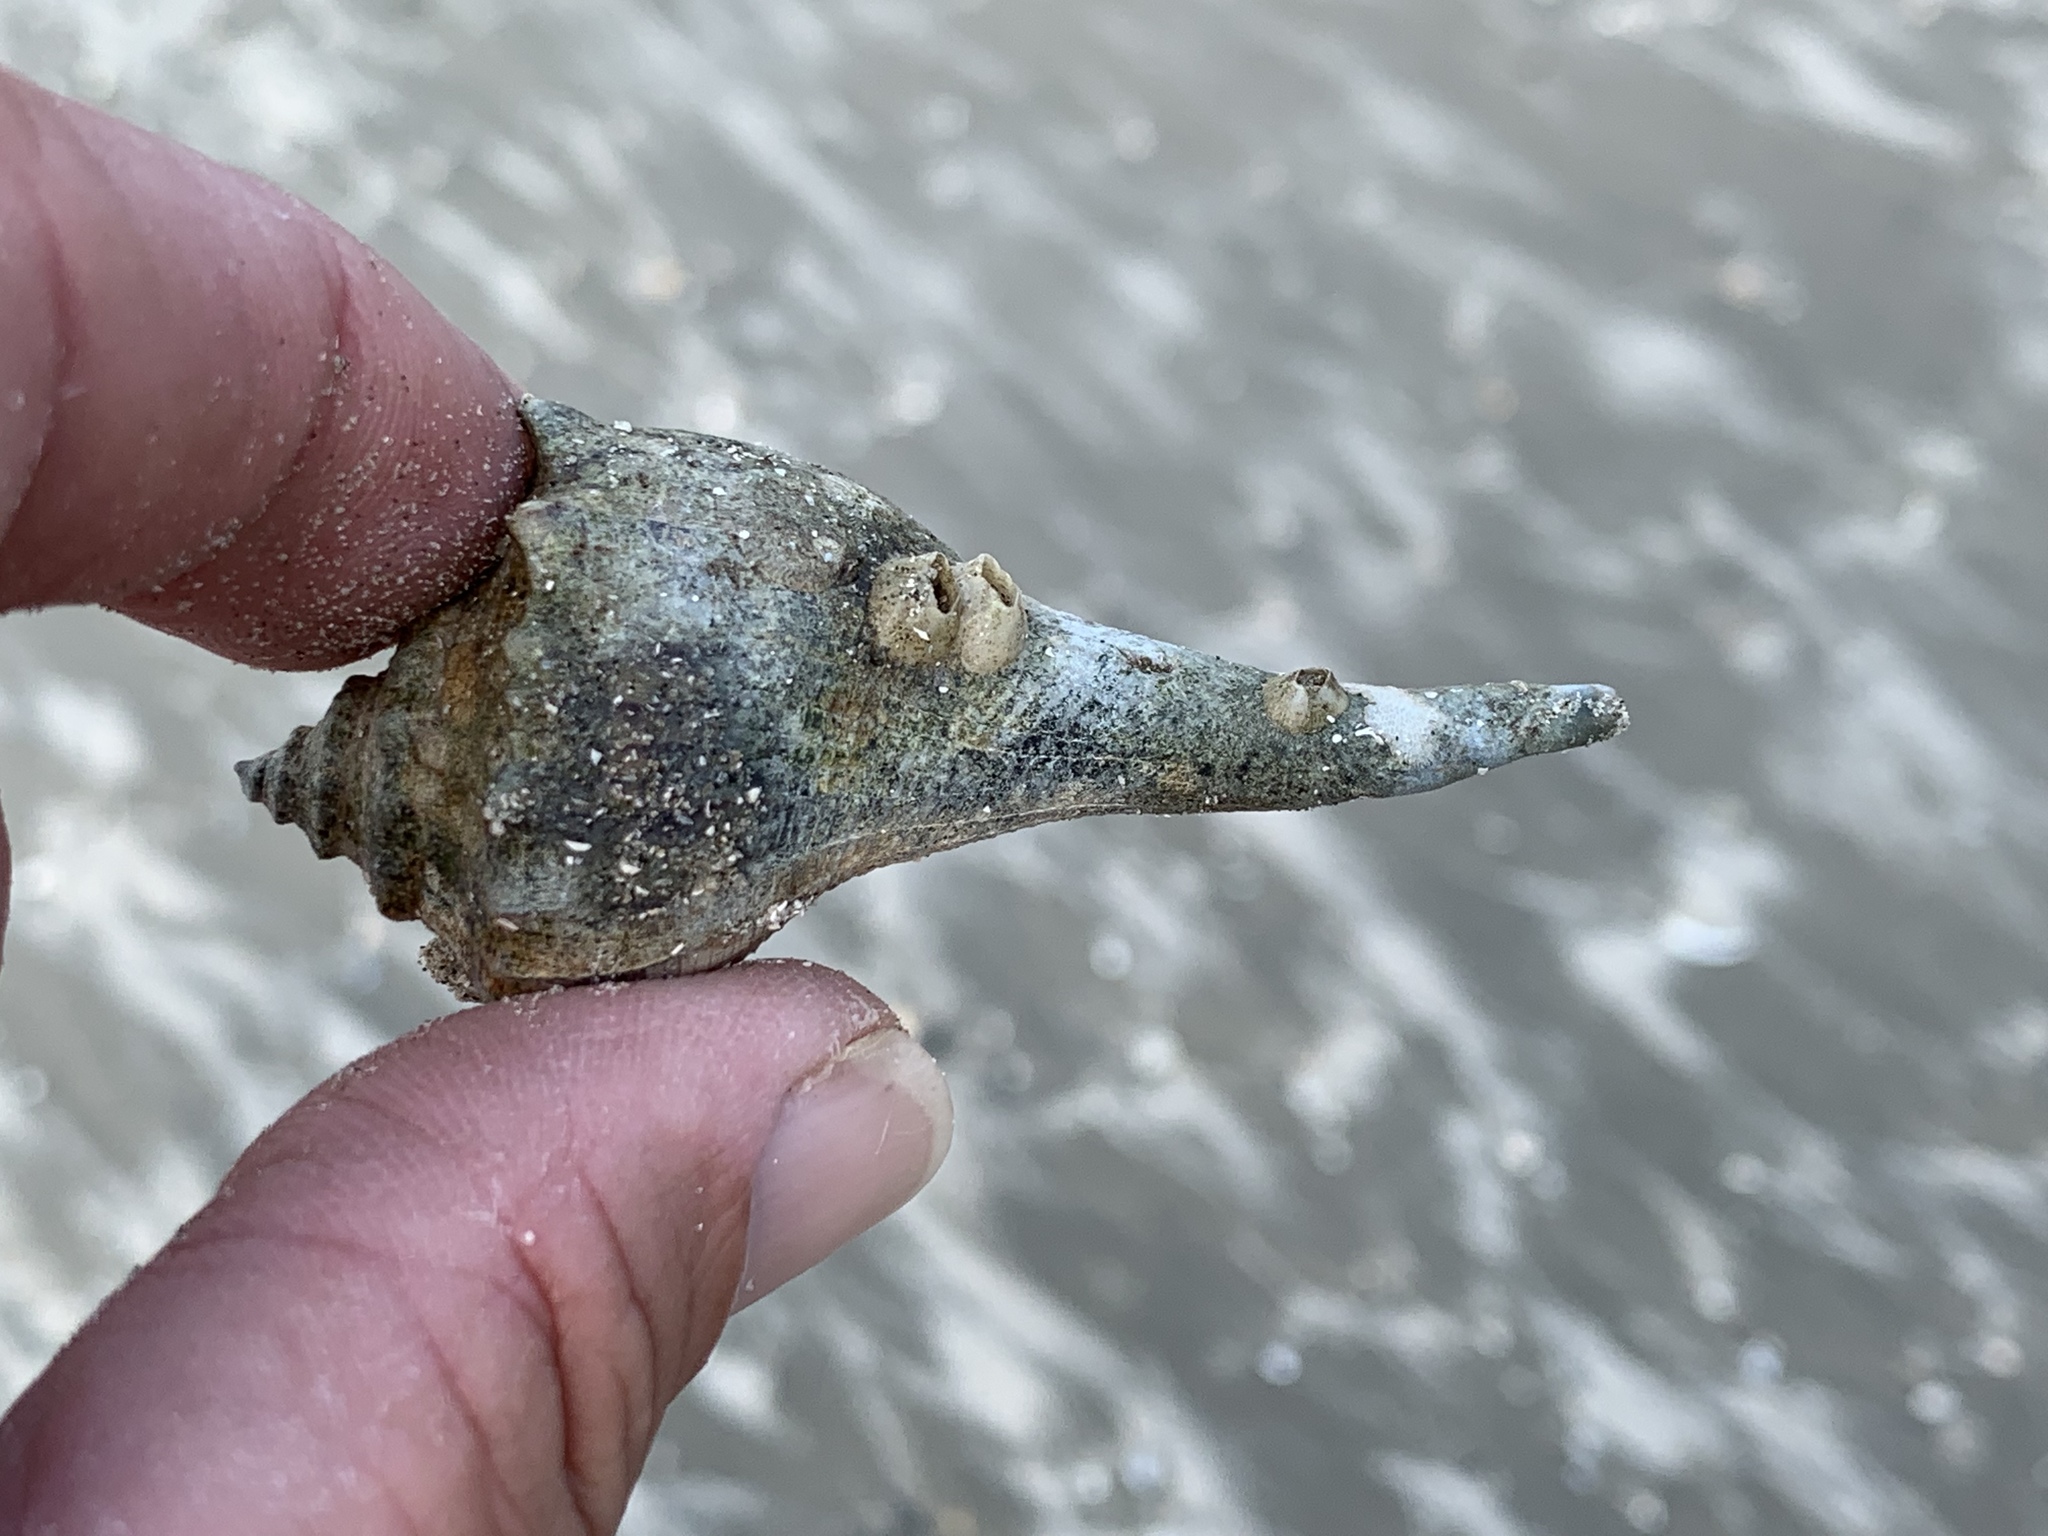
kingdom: Animalia
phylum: Mollusca
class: Gastropoda
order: Neogastropoda
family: Busyconidae
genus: Sinistrofulgur
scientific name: Sinistrofulgur pulleyi
